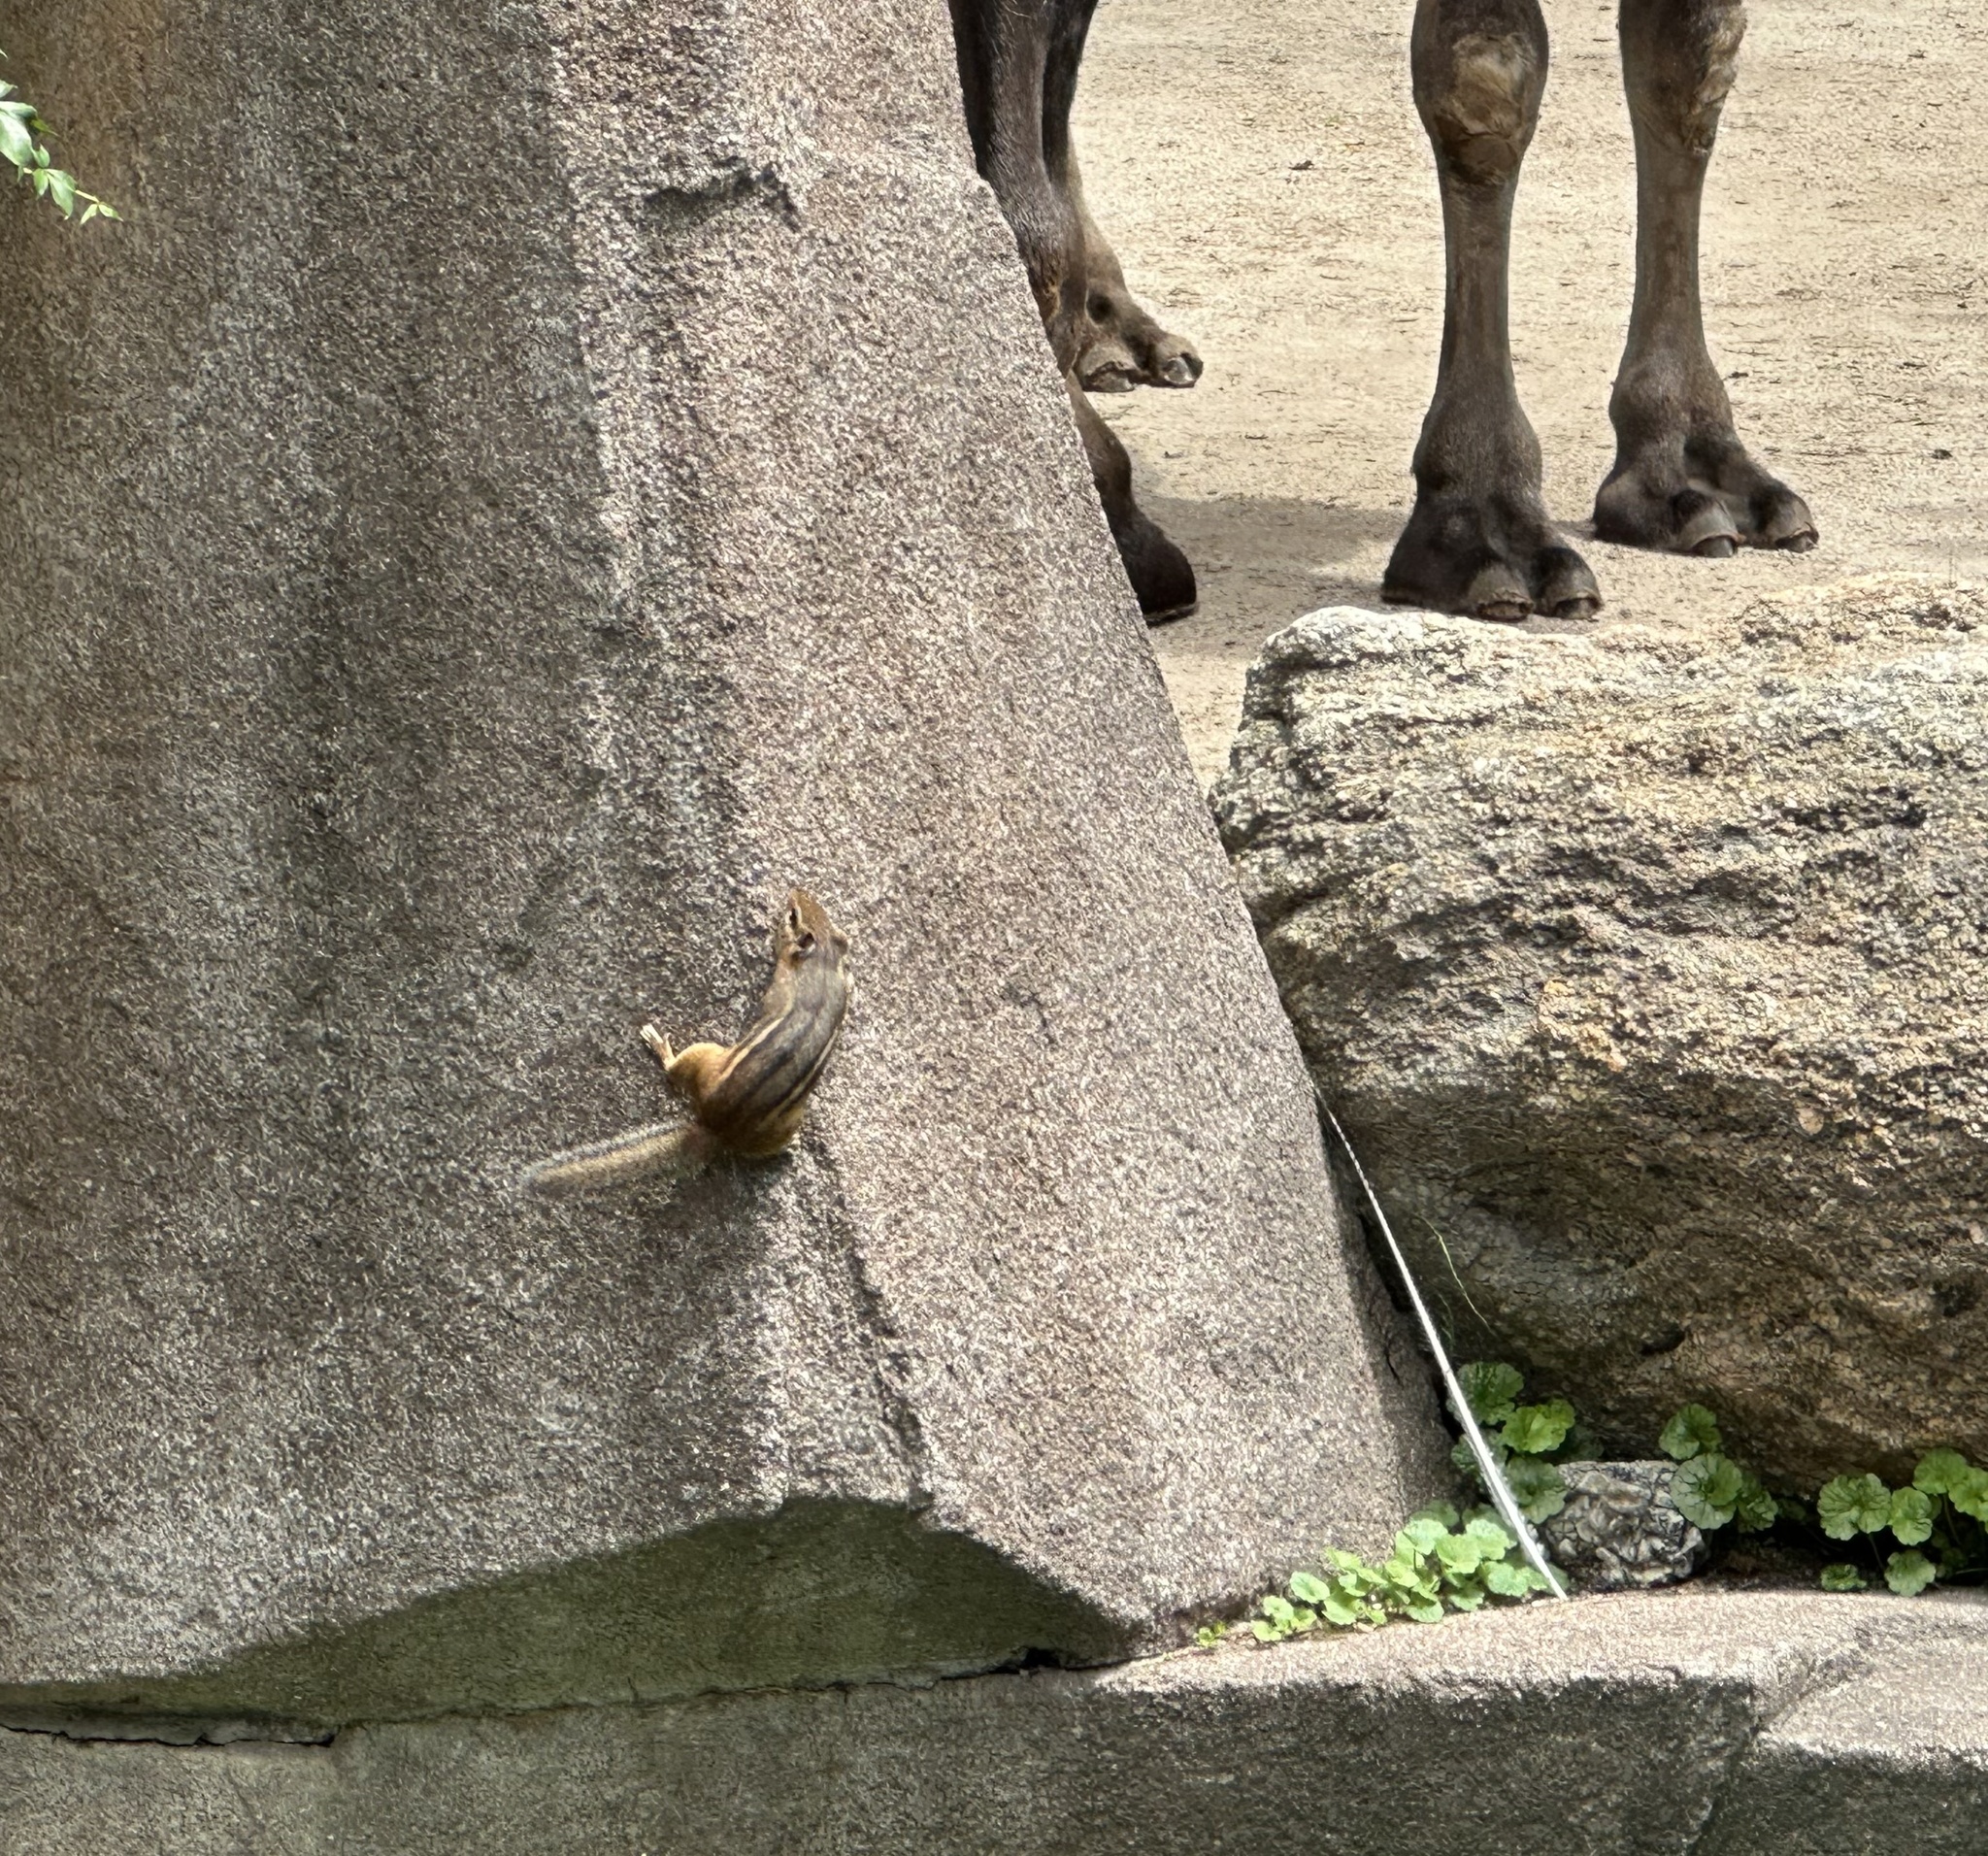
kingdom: Animalia
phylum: Chordata
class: Mammalia
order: Rodentia
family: Sciuridae
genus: Tamias
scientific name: Tamias striatus
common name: Eastern chipmunk
